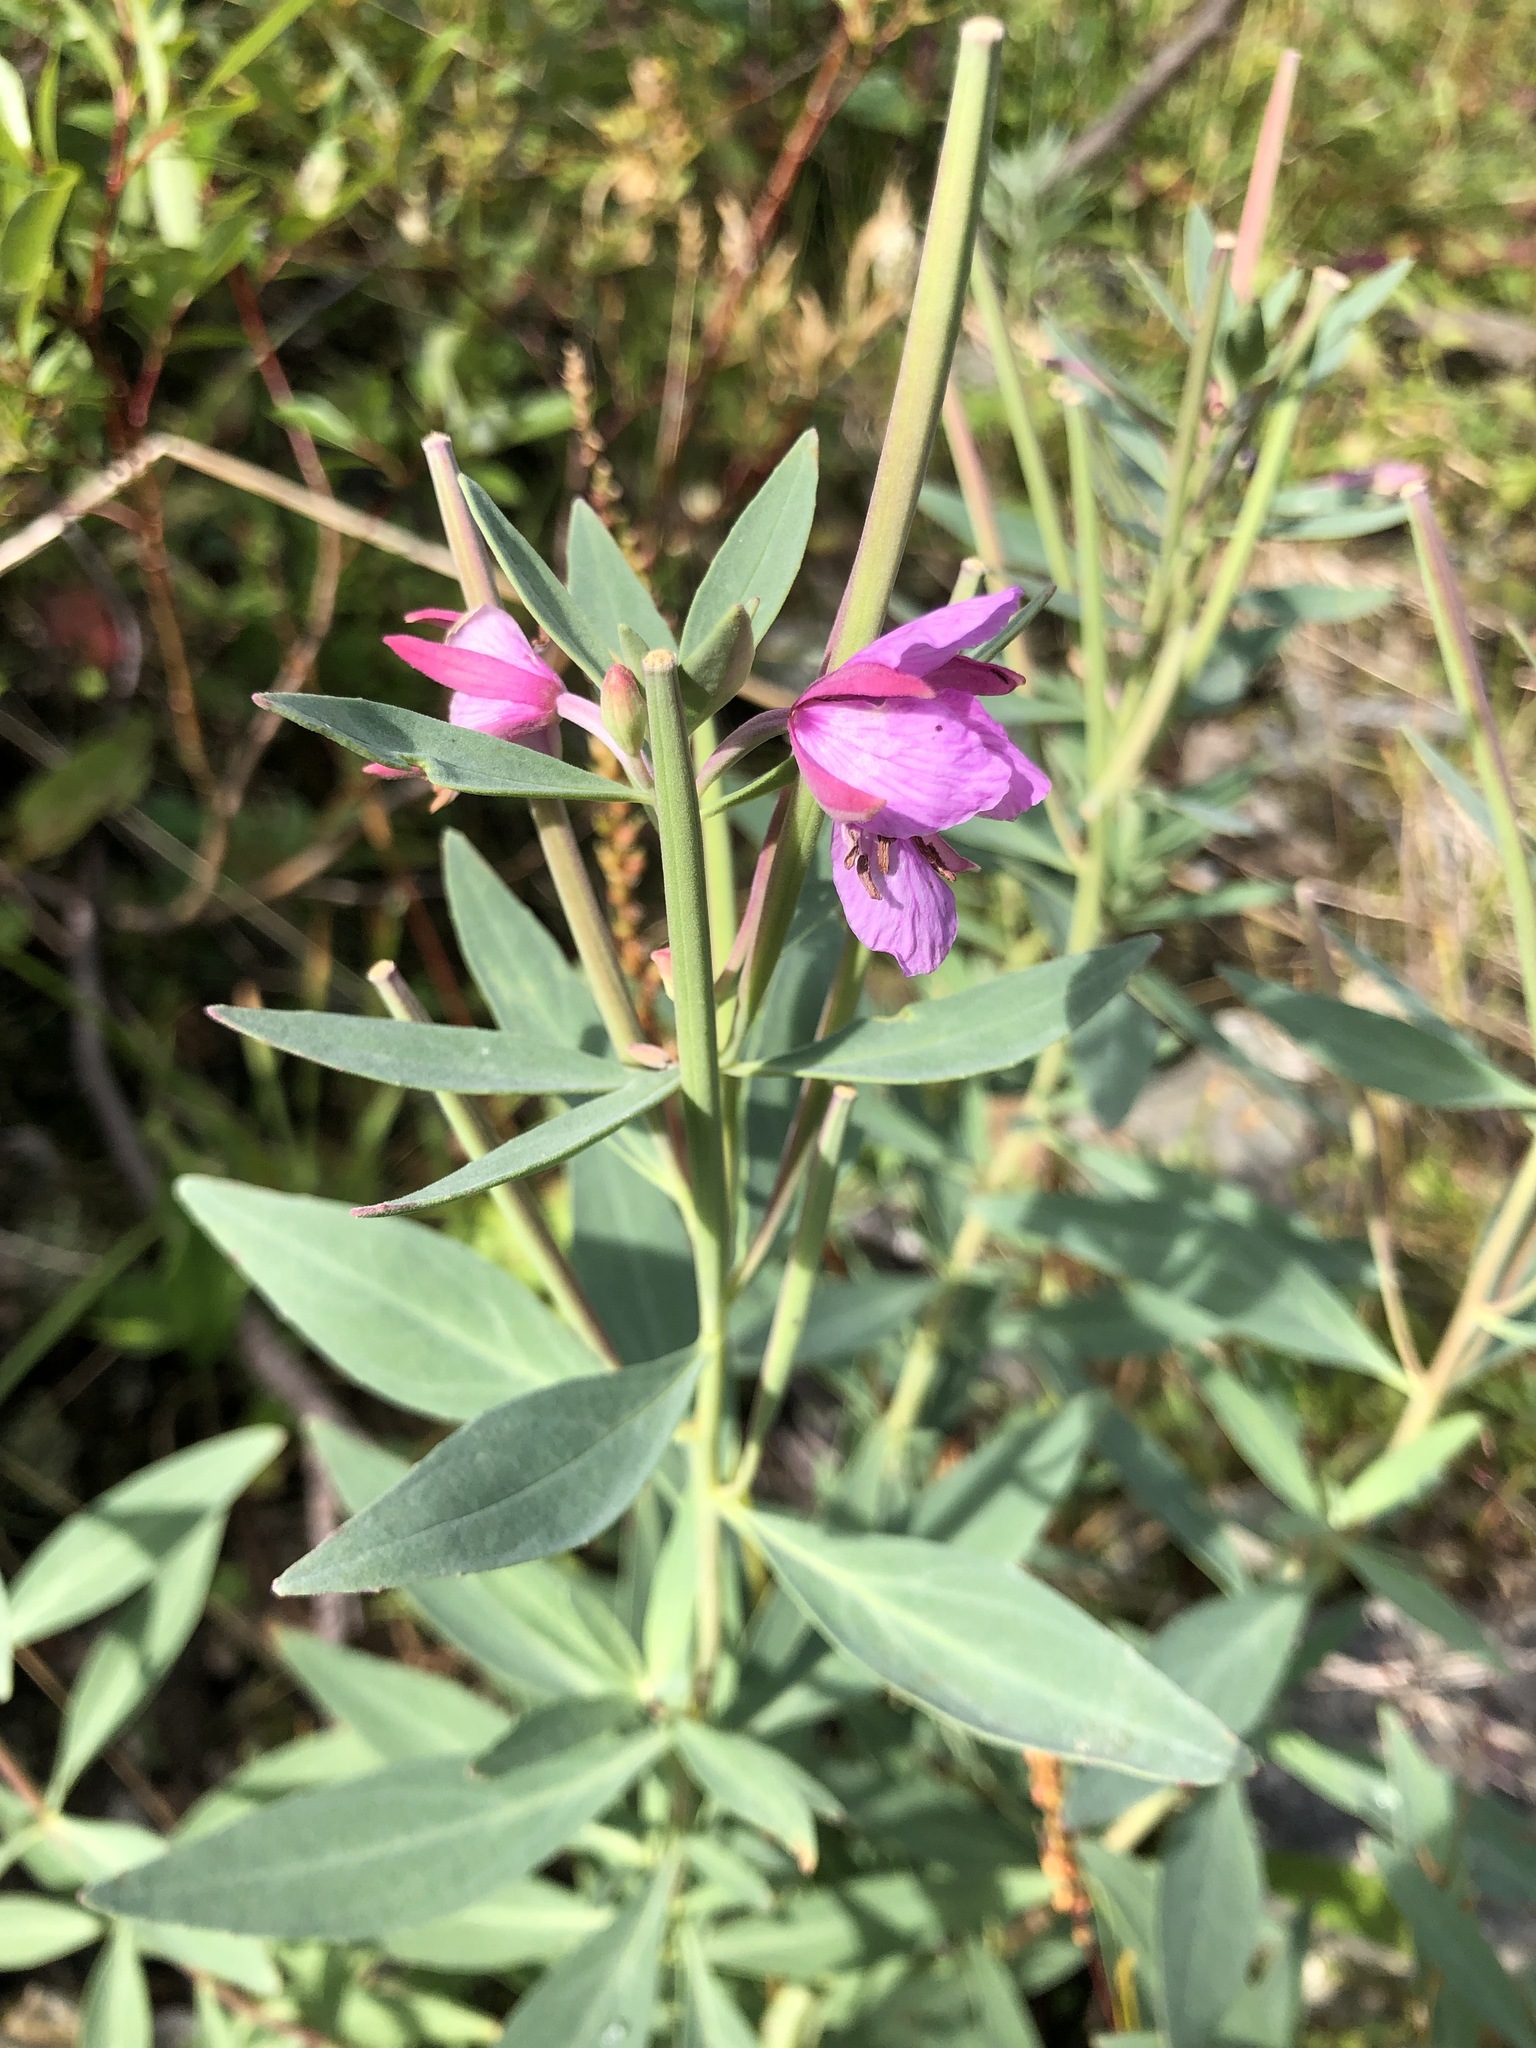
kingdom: Plantae
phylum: Tracheophyta
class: Magnoliopsida
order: Myrtales
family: Onagraceae
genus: Chamaenerion
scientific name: Chamaenerion latifolium
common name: Dwarf fireweed
